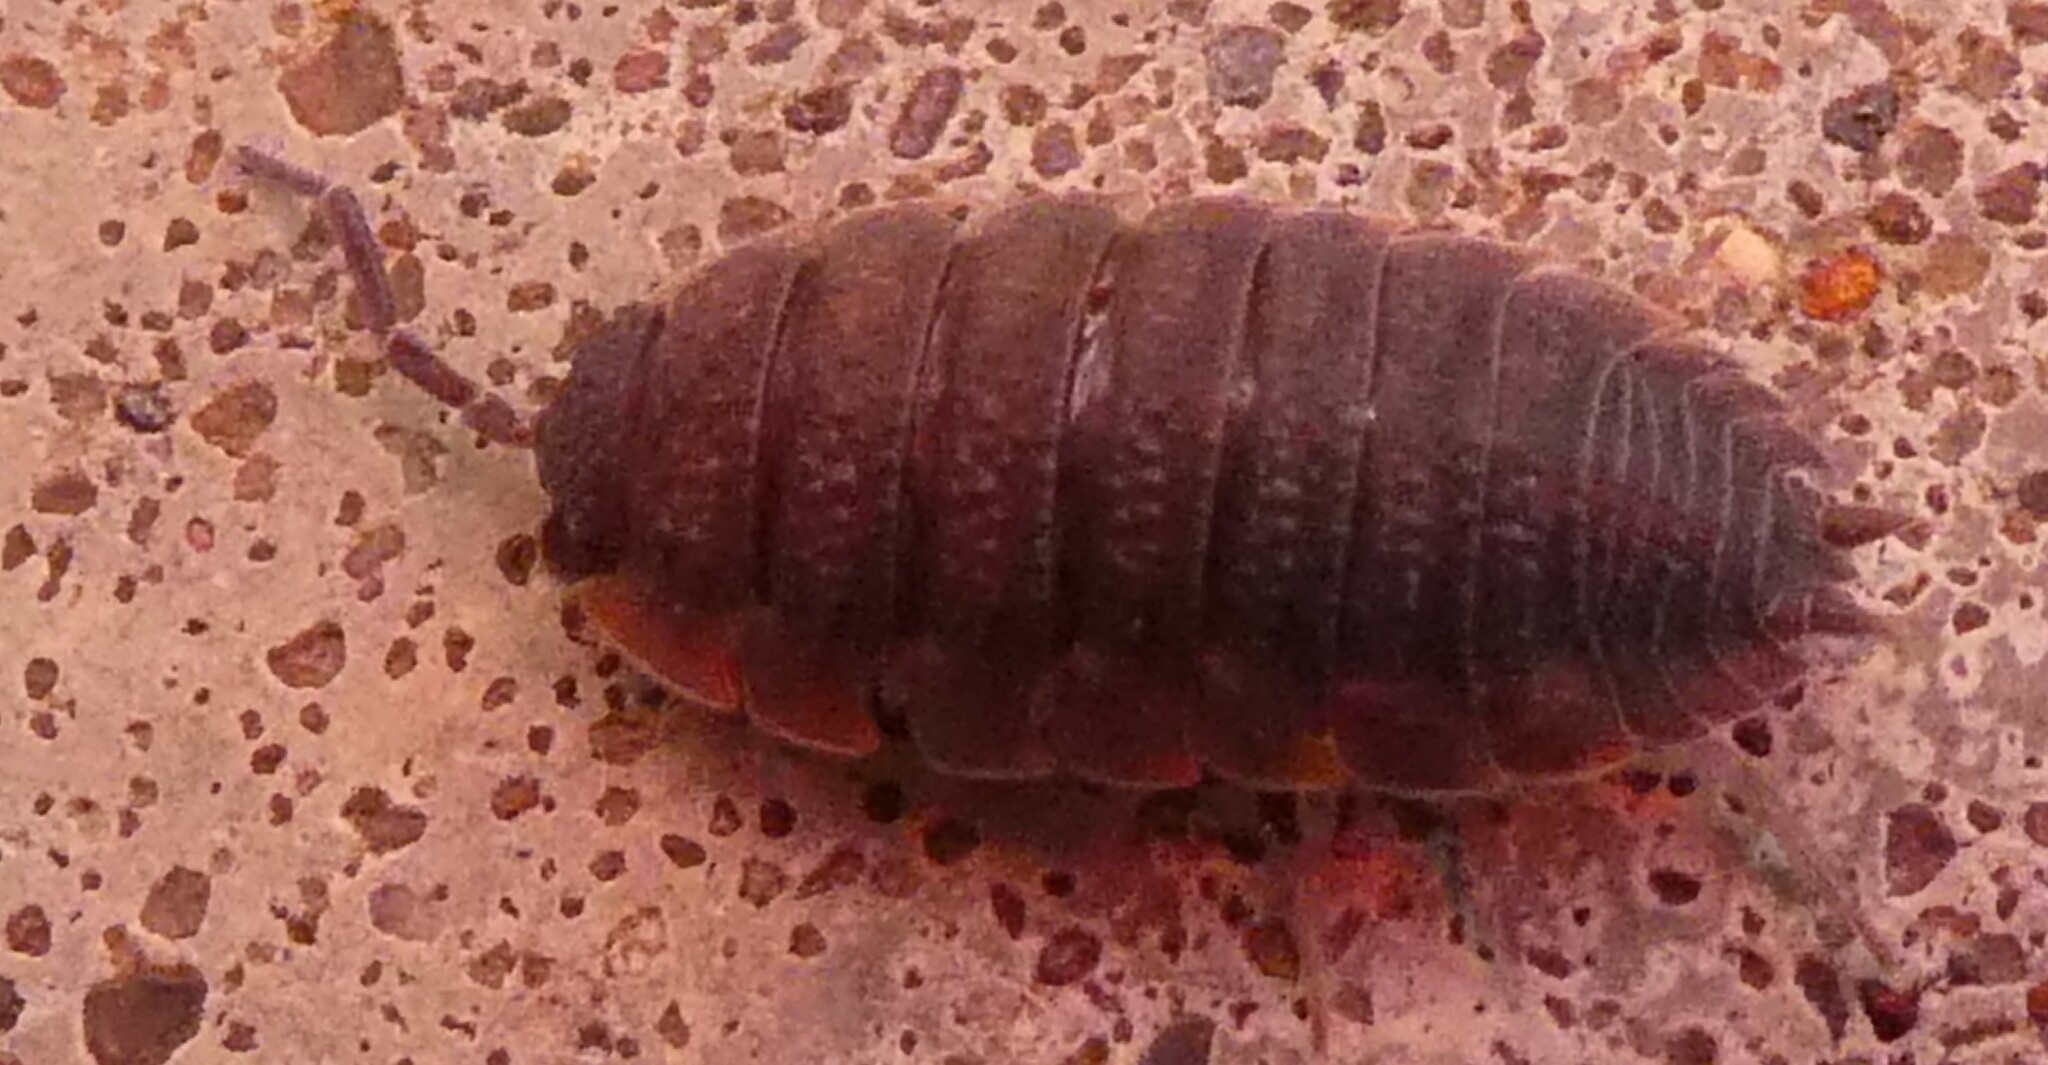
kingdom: Animalia
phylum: Arthropoda
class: Malacostraca
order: Isopoda
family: Porcellionidae
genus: Porcellio
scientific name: Porcellio scaber
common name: Common rough woodlouse
